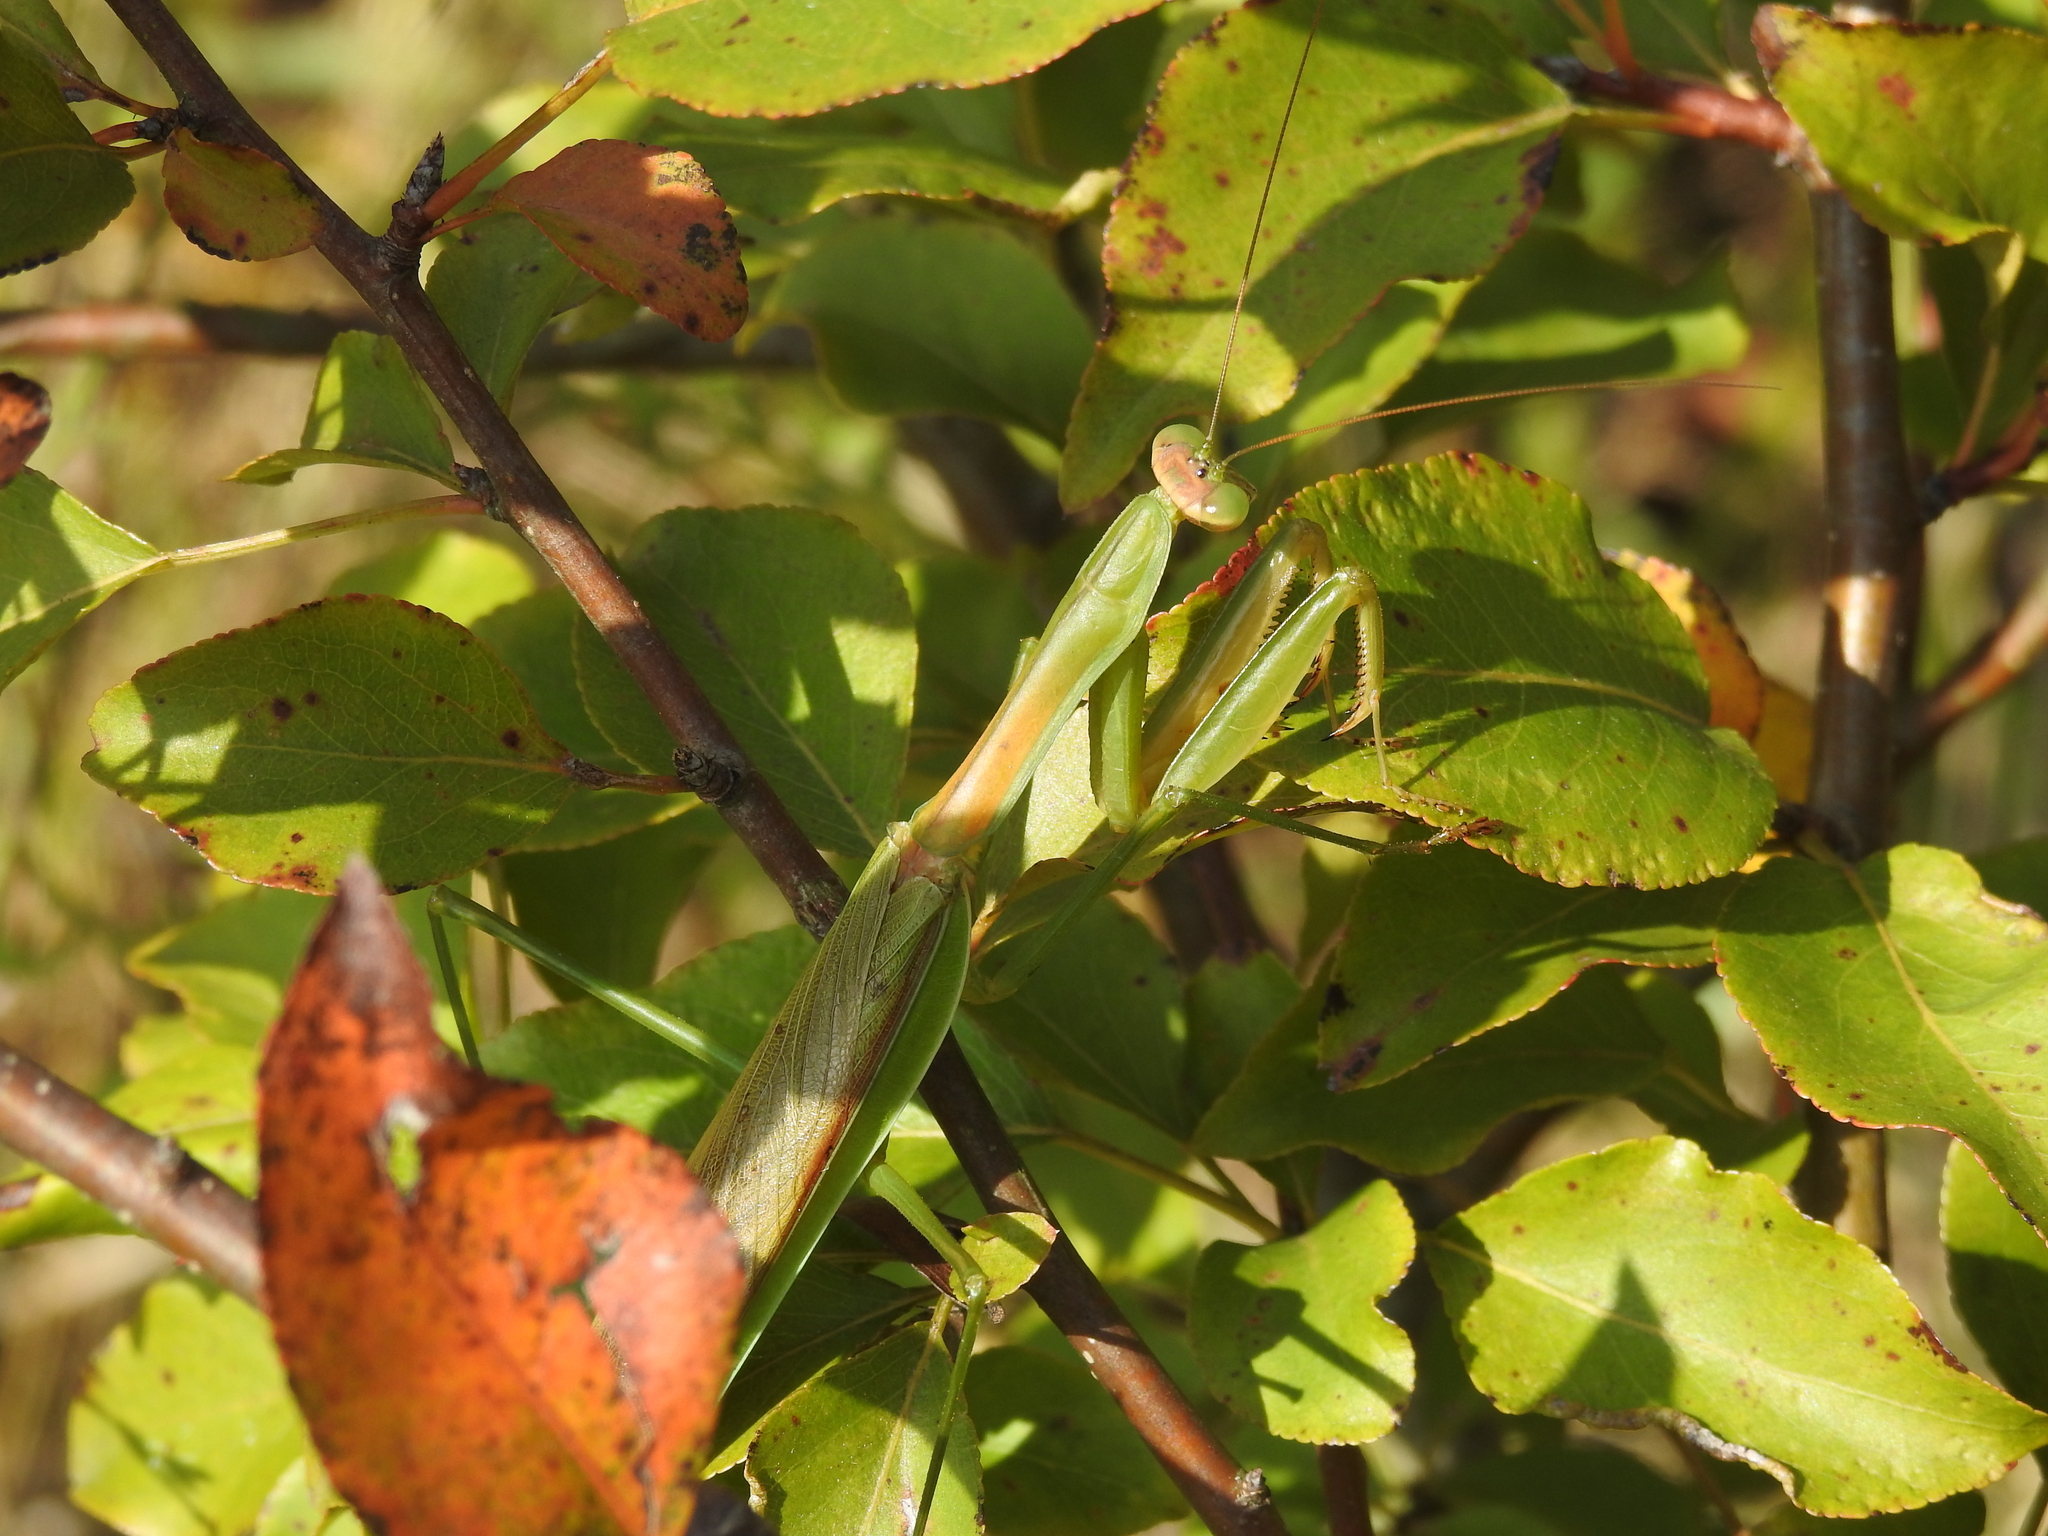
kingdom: Animalia
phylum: Arthropoda
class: Insecta
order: Mantodea
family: Mantidae
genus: Tenodera
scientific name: Tenodera sinensis
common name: Chinese mantis
